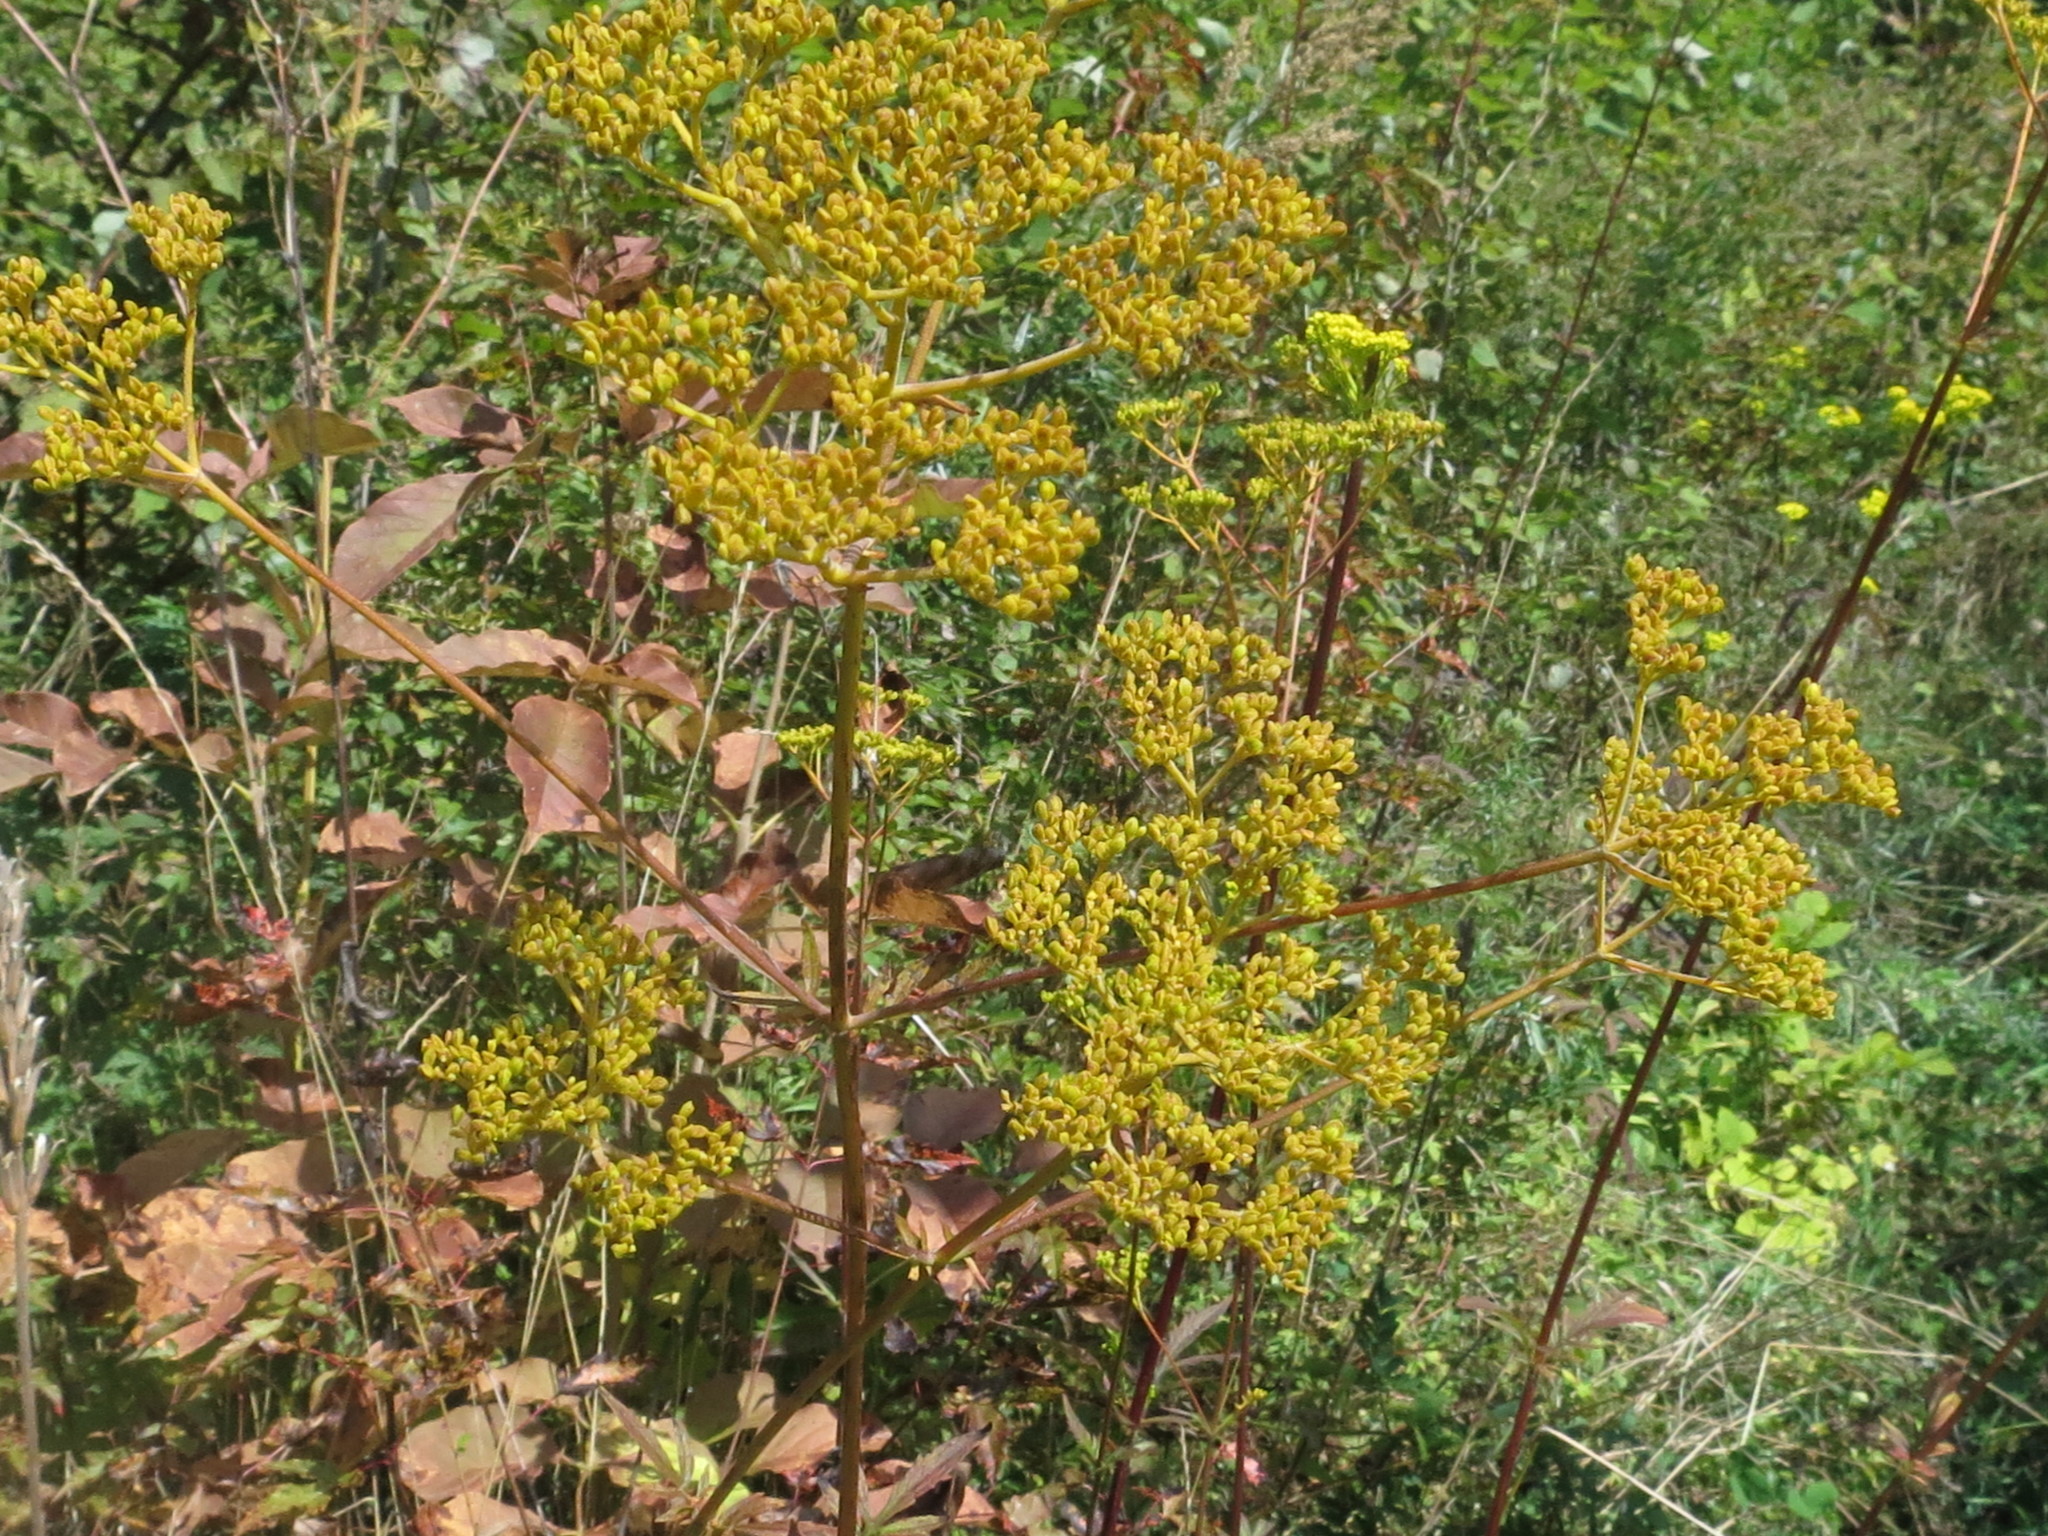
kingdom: Plantae
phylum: Tracheophyta
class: Magnoliopsida
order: Dipsacales
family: Caprifoliaceae
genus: Patrinia
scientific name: Patrinia scabiosifolia
